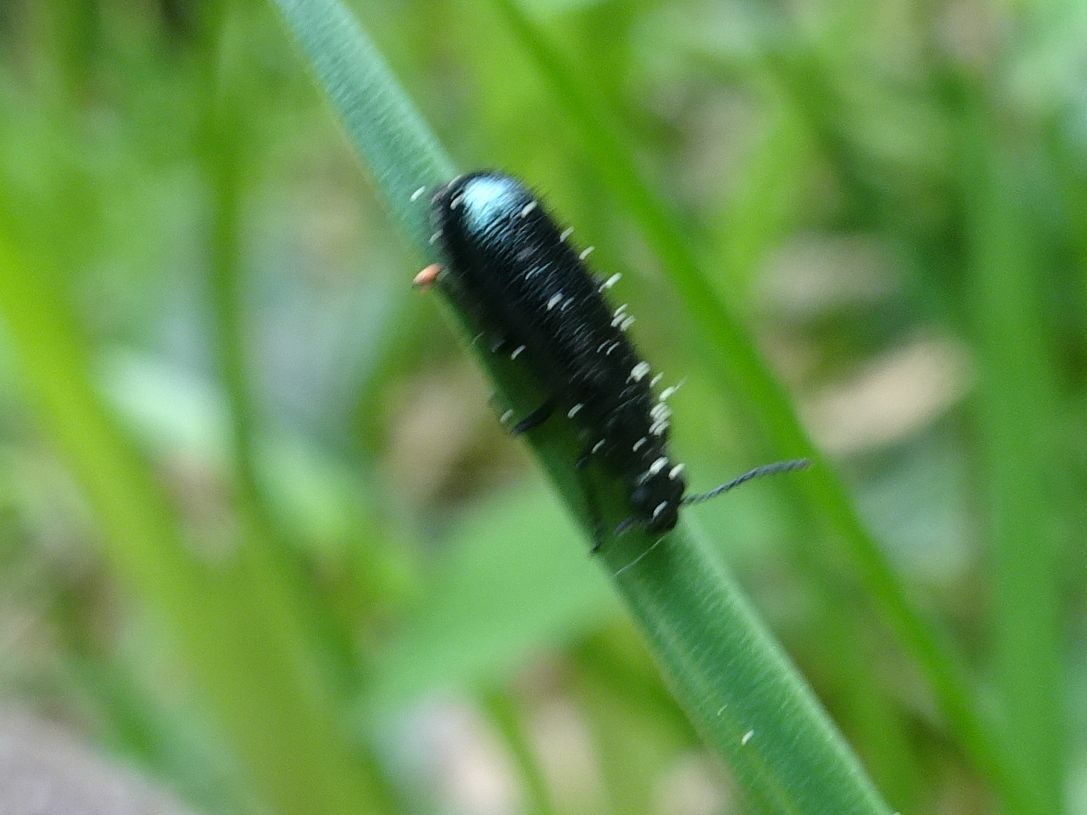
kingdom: Animalia
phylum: Arthropoda
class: Insecta
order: Coleoptera
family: Melyridae
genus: Dasytes
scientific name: Dasytes caeruleus
